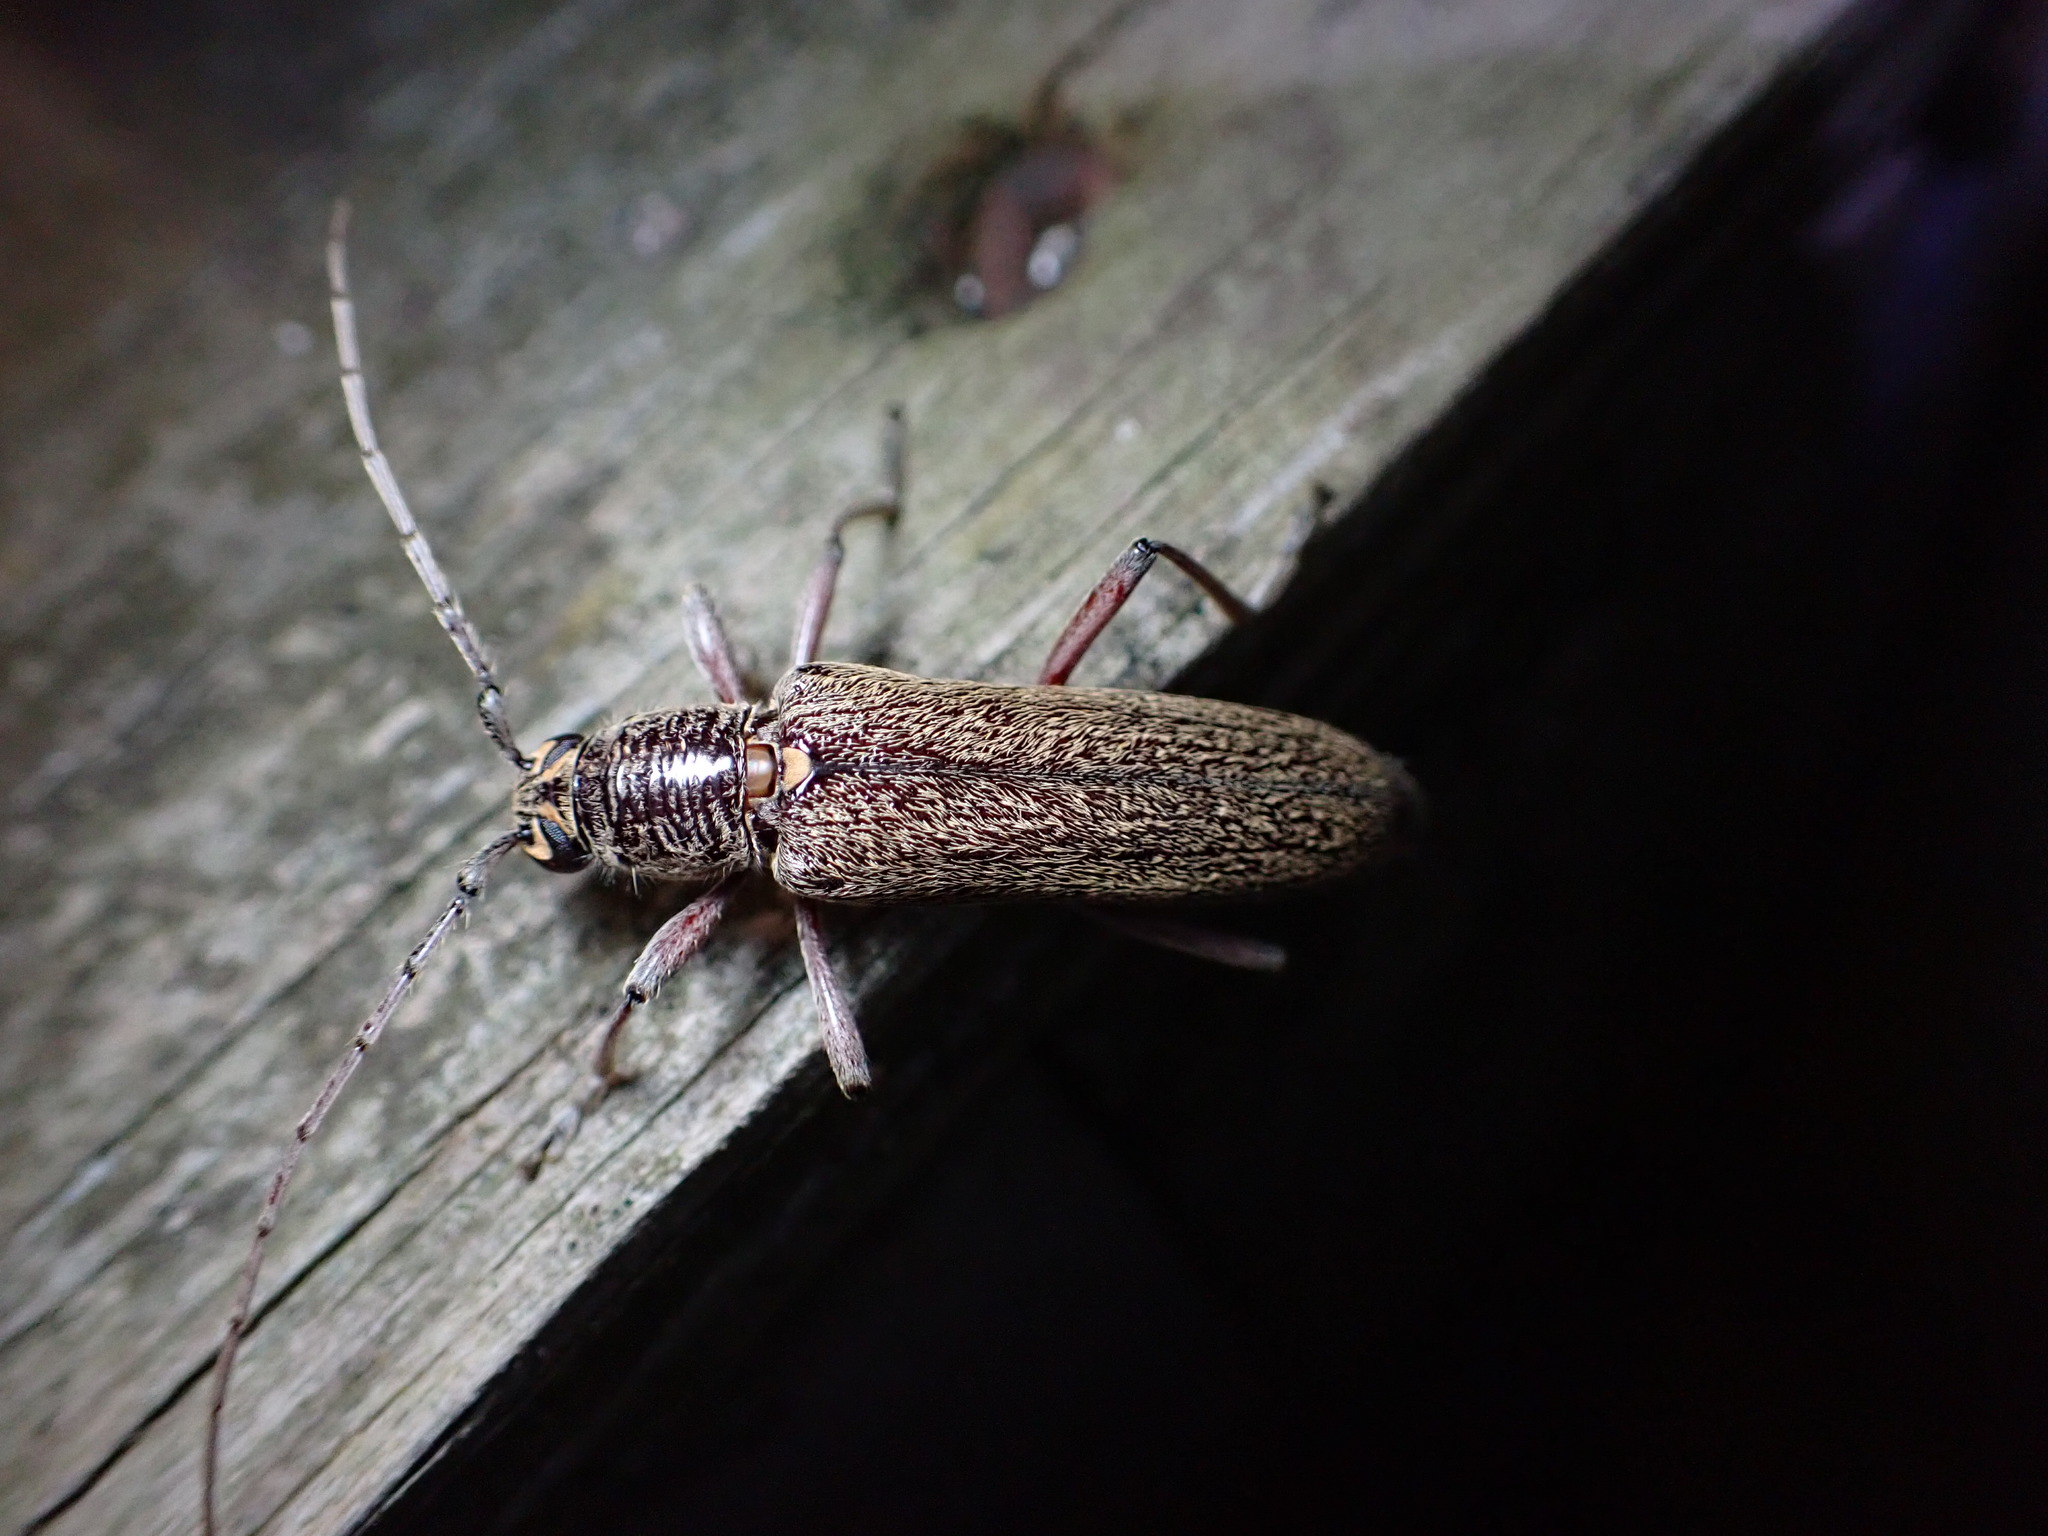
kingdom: Animalia
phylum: Arthropoda
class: Insecta
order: Coleoptera
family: Cerambycidae
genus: Oemona
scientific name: Oemona hirta
